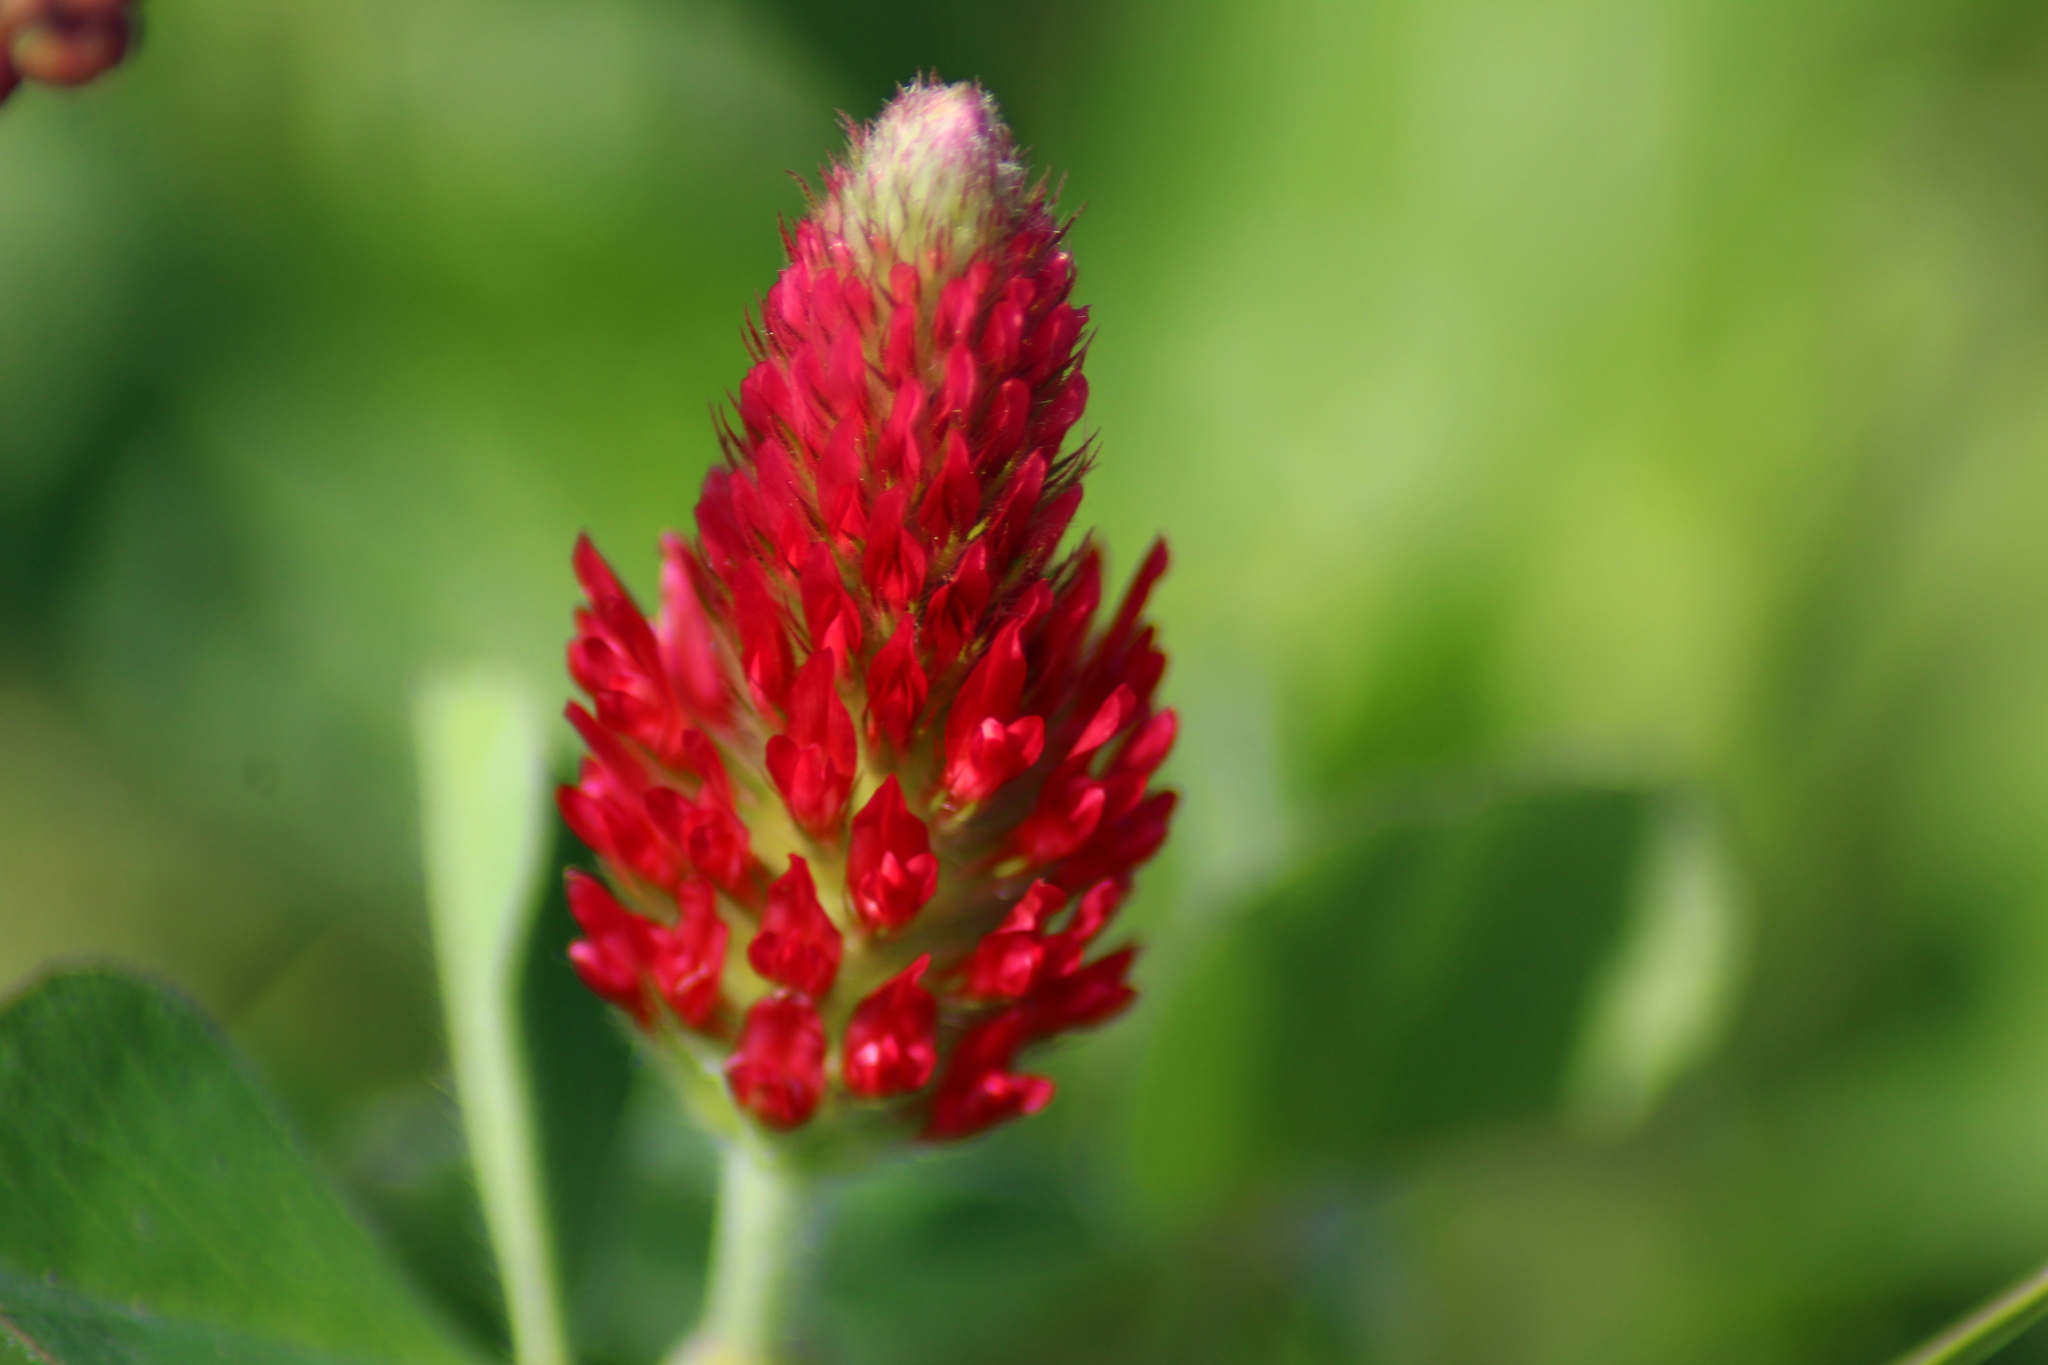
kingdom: Plantae
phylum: Tracheophyta
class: Magnoliopsida
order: Fabales
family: Fabaceae
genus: Trifolium
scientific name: Trifolium incarnatum
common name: Crimson clover
